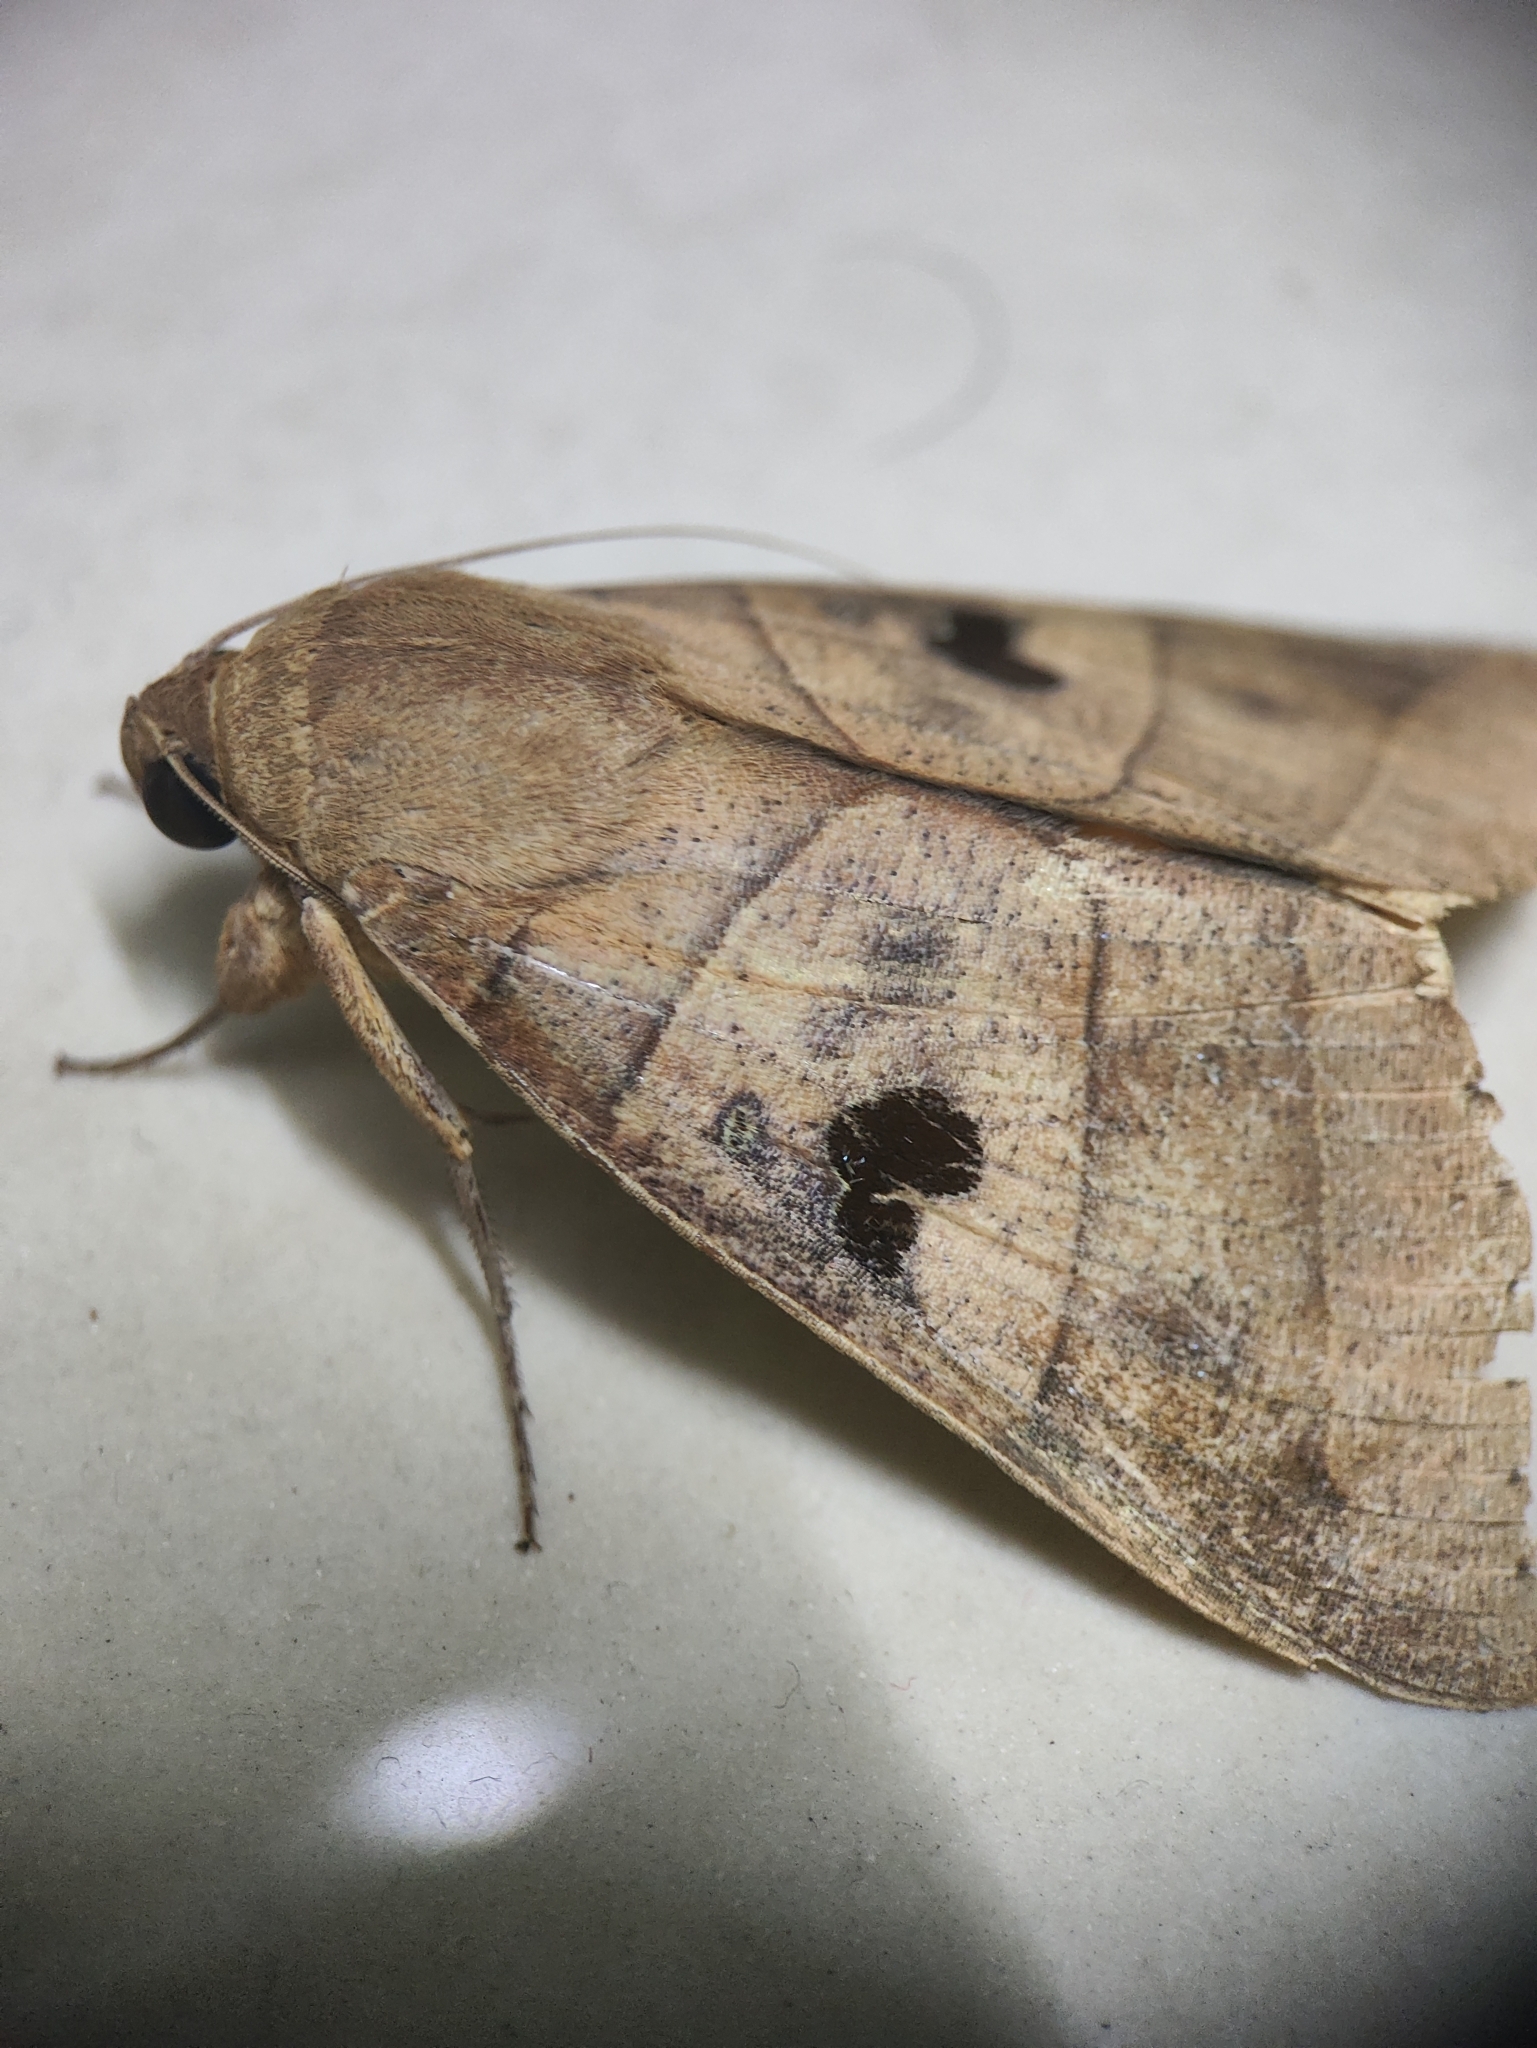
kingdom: Animalia
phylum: Arthropoda
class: Insecta
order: Lepidoptera
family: Erebidae
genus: Thyas
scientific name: Thyas coronata
